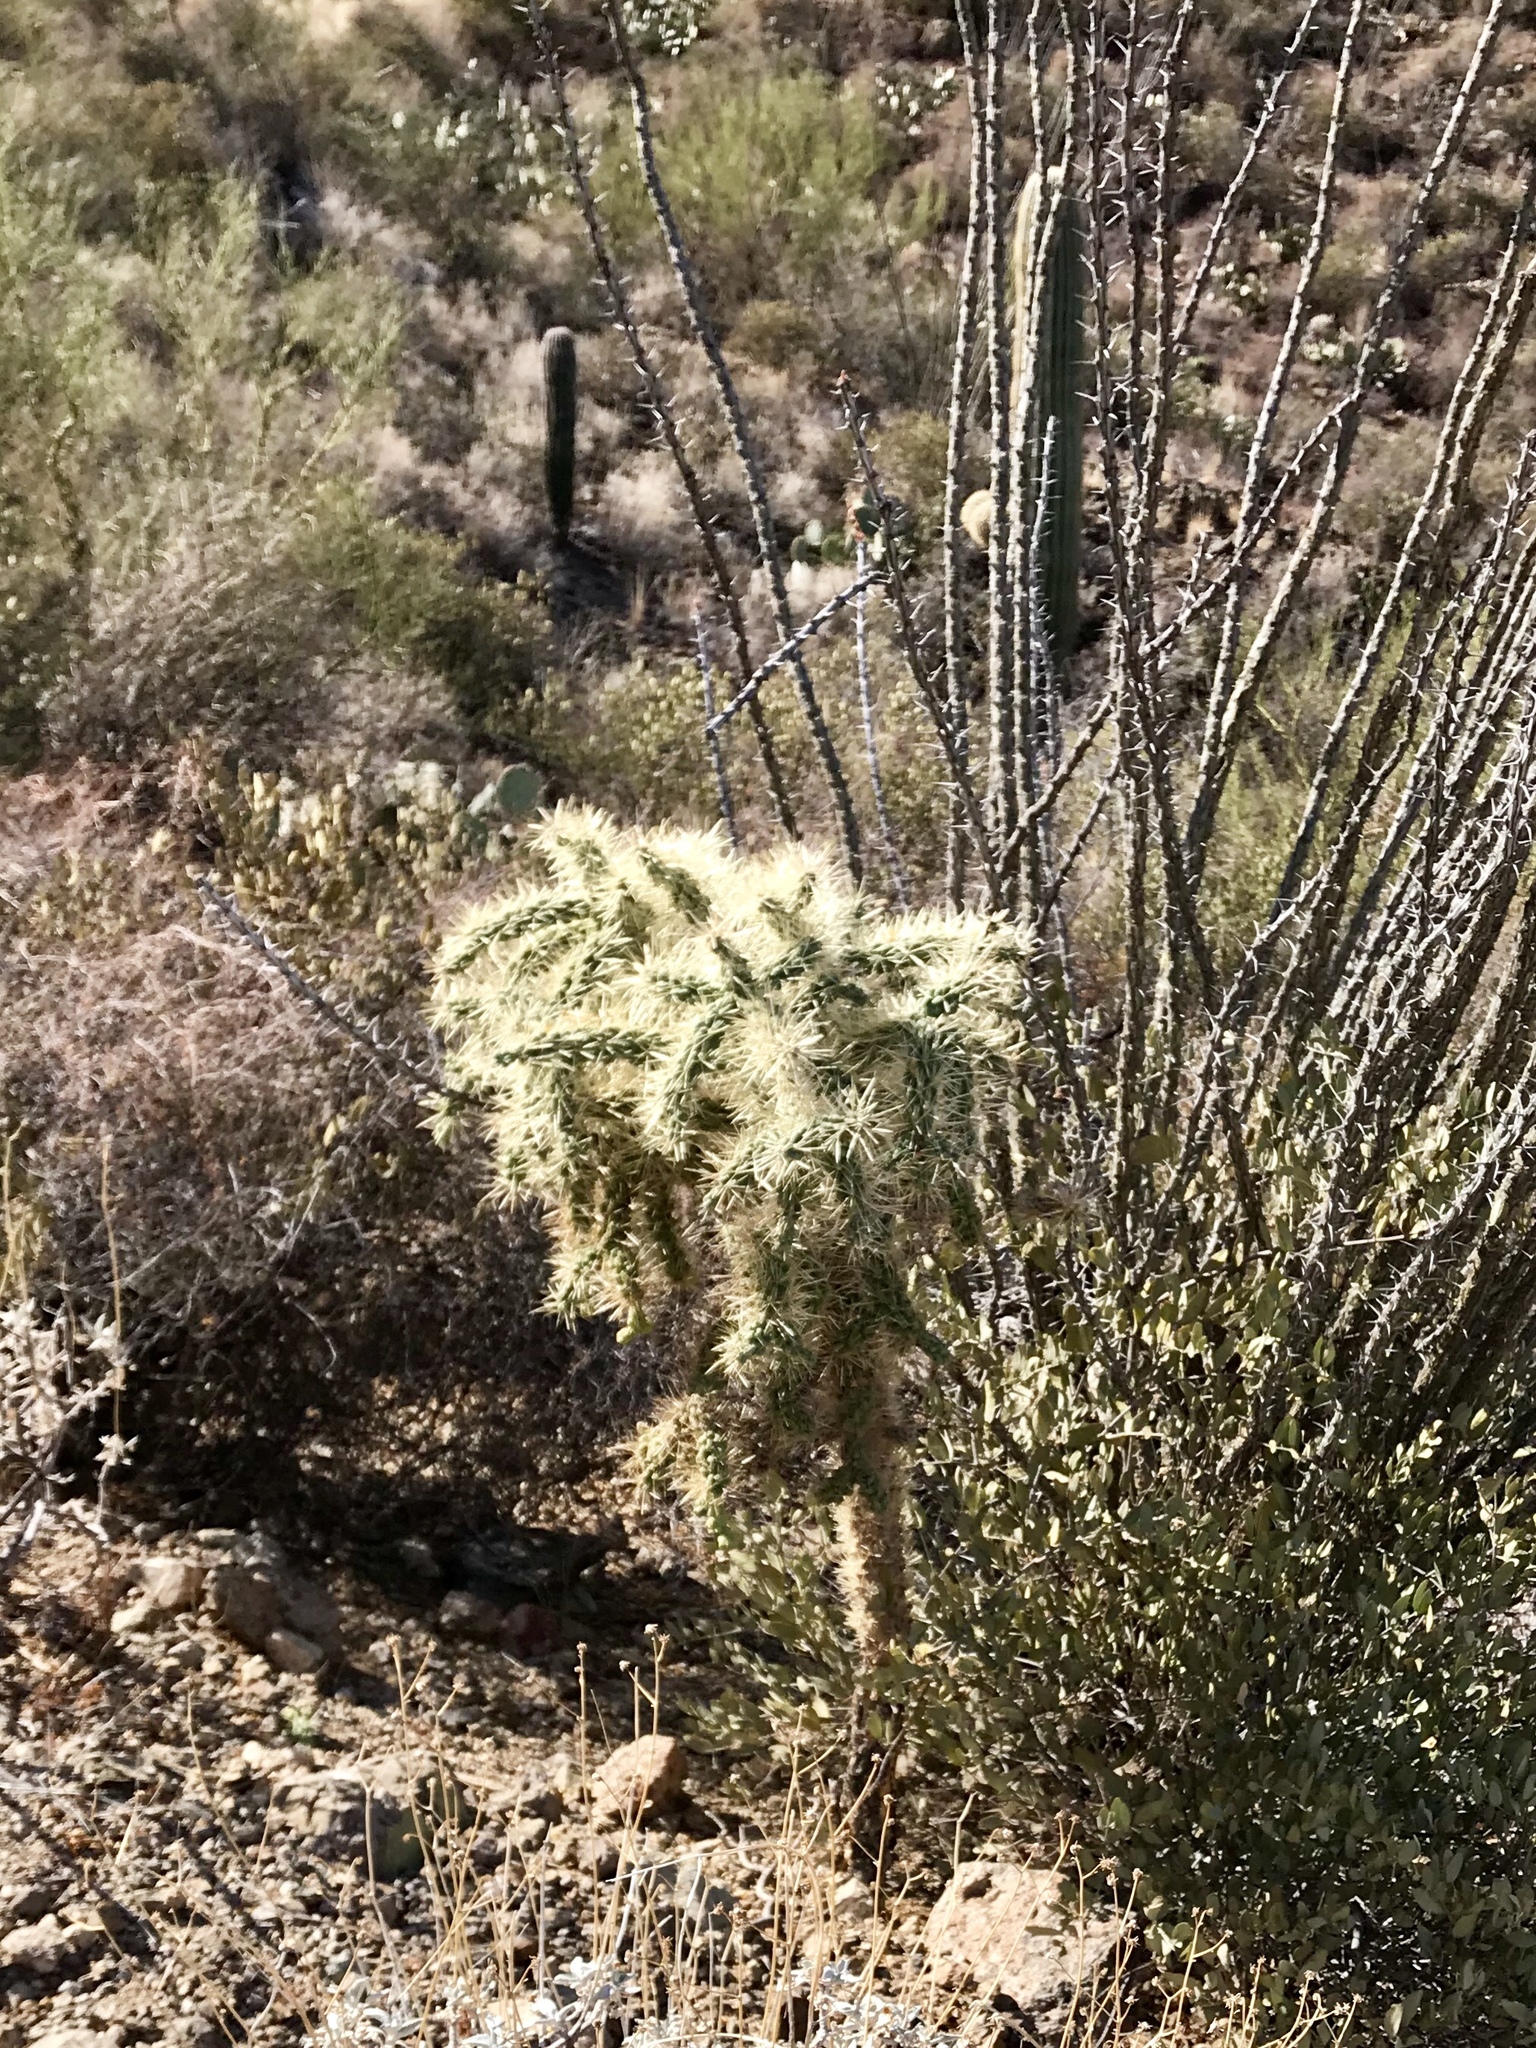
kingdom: Plantae
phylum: Tracheophyta
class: Magnoliopsida
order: Caryophyllales
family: Cactaceae
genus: Cylindropuntia
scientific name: Cylindropuntia fulgida
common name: Jumping cholla
